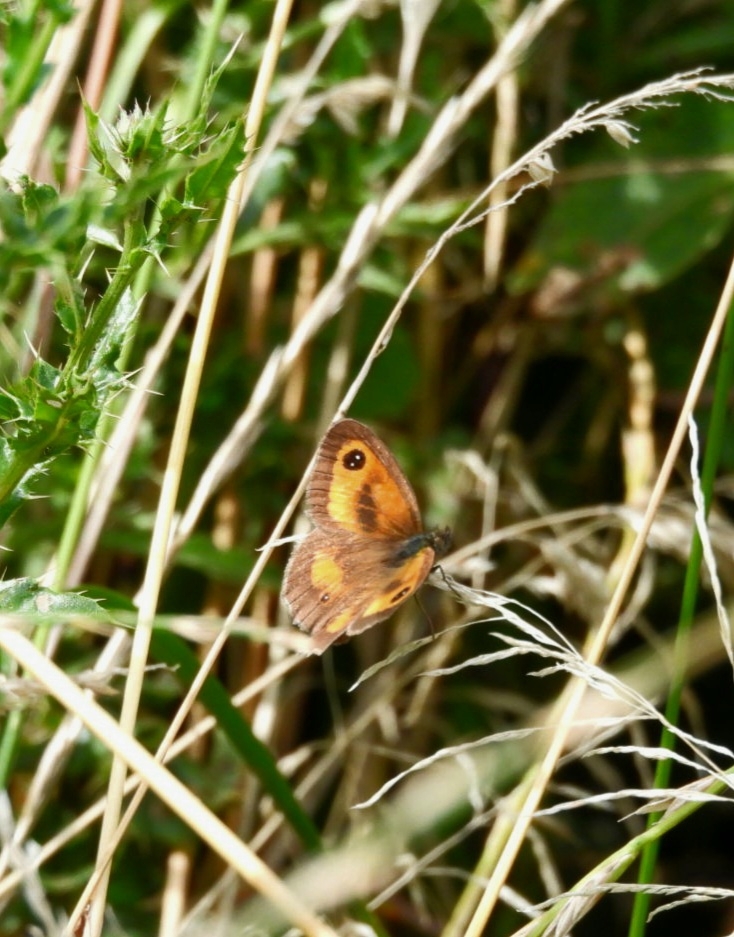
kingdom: Animalia
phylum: Arthropoda
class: Insecta
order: Lepidoptera
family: Nymphalidae
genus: Pyronia
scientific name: Pyronia tithonus
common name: Gatekeeper
